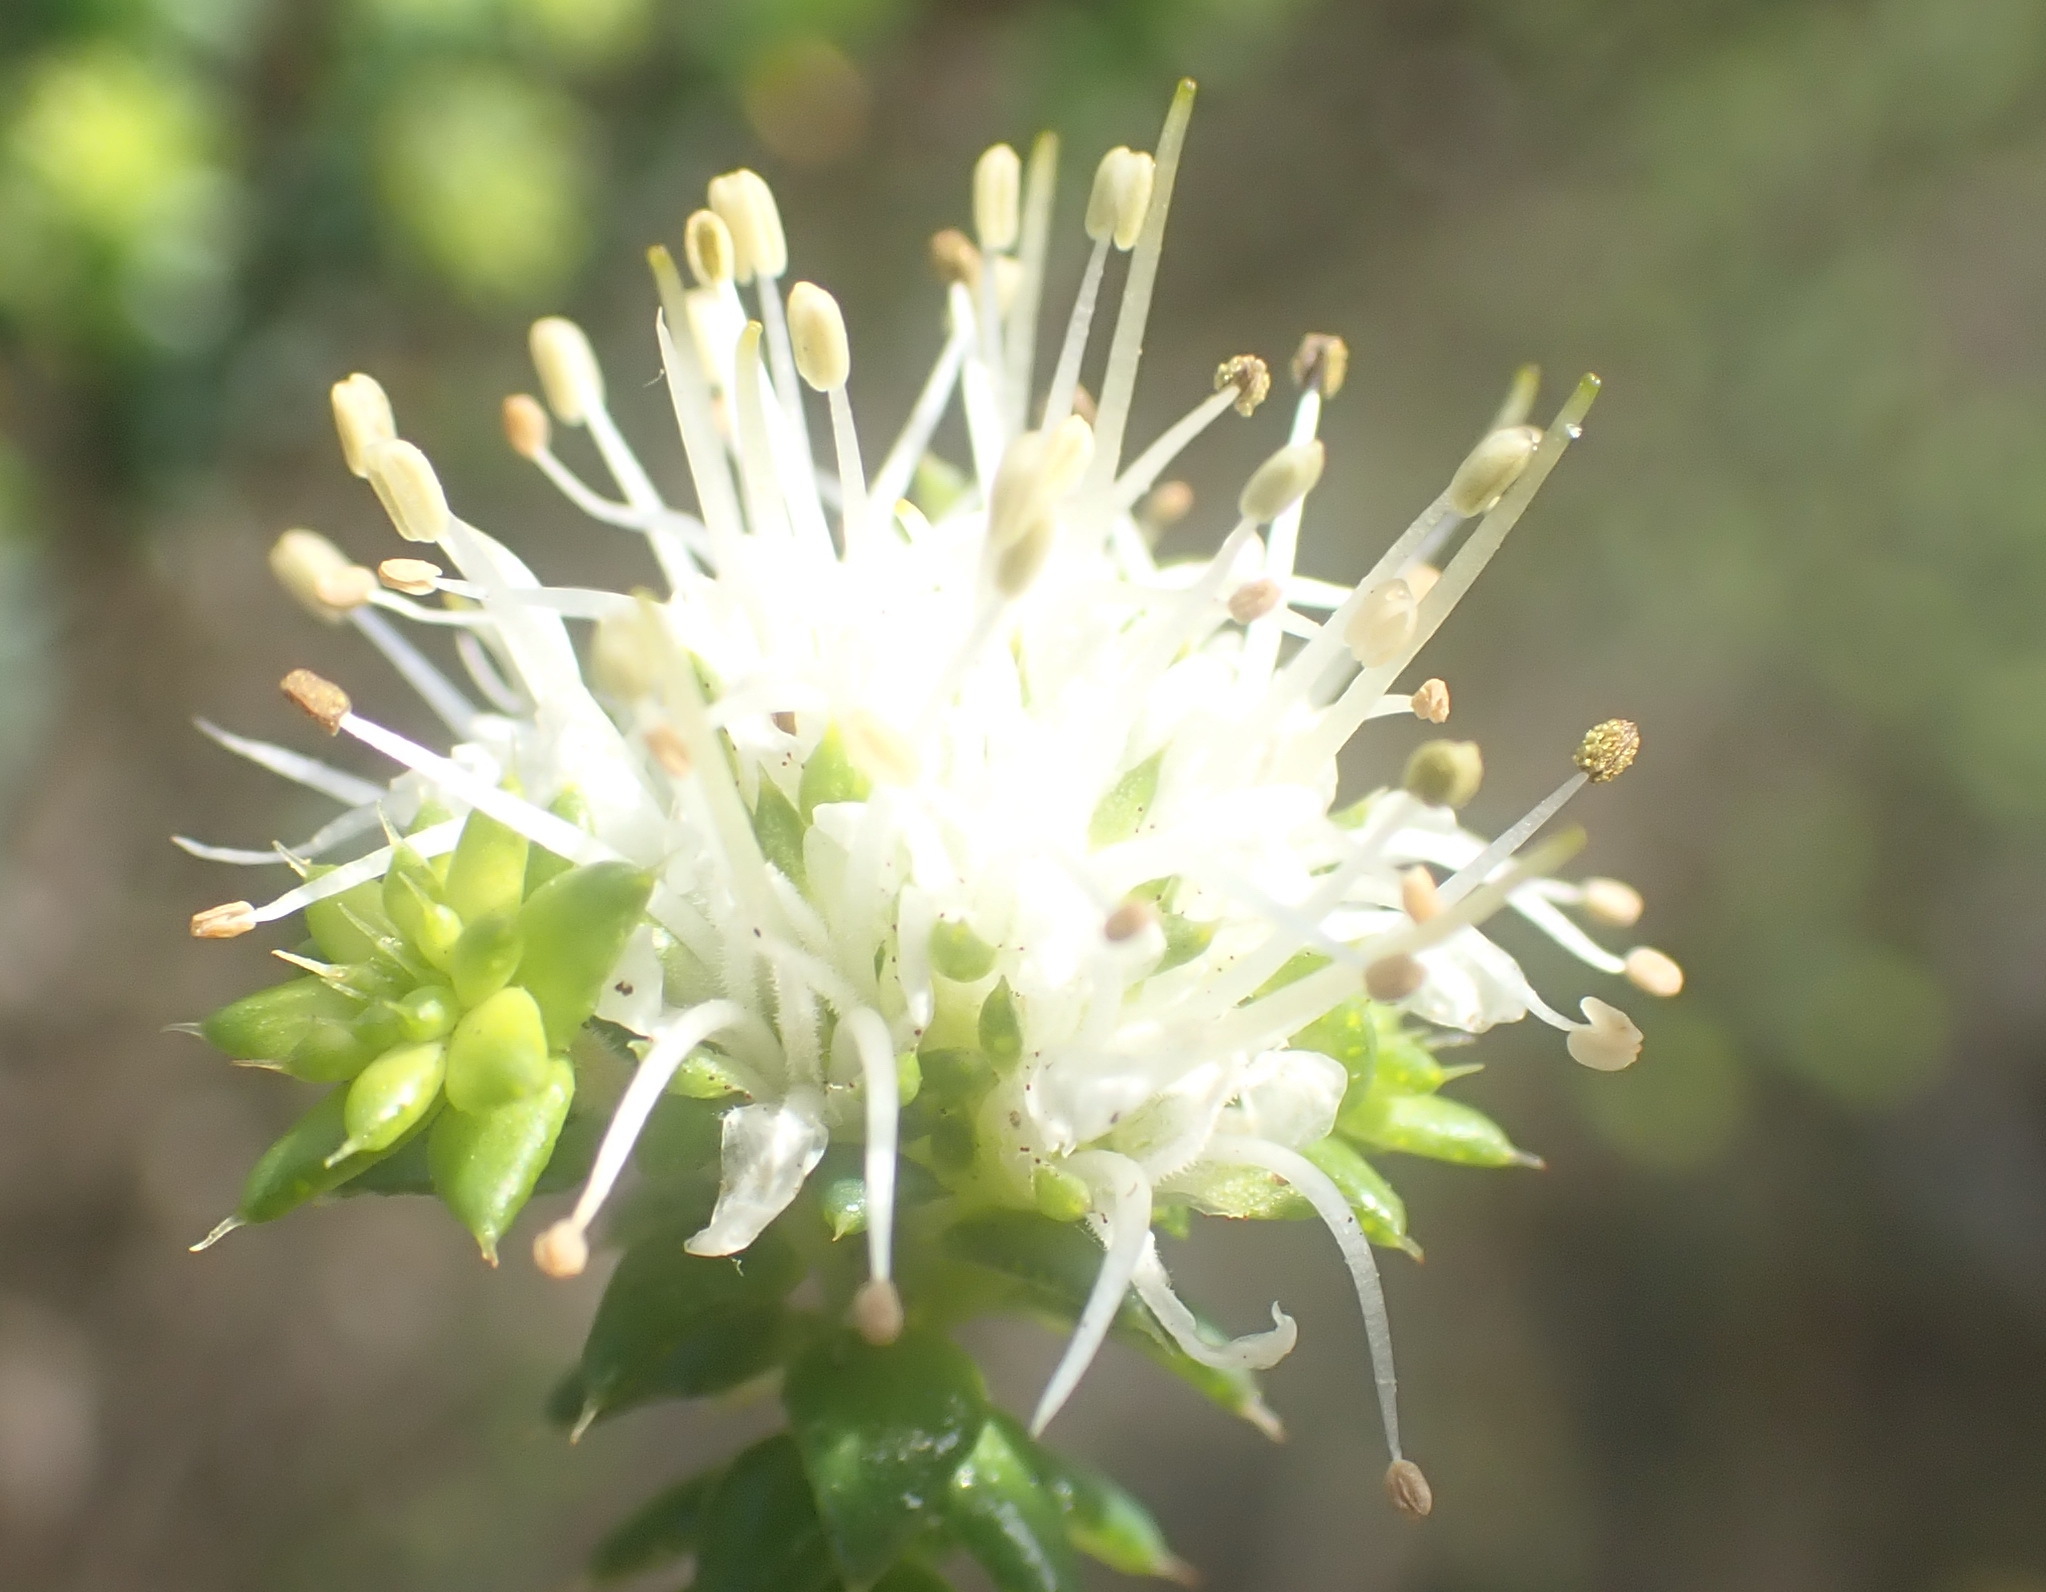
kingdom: Plantae
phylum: Tracheophyta
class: Magnoliopsida
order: Sapindales
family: Rutaceae
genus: Agathosma
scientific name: Agathosma apiculata
